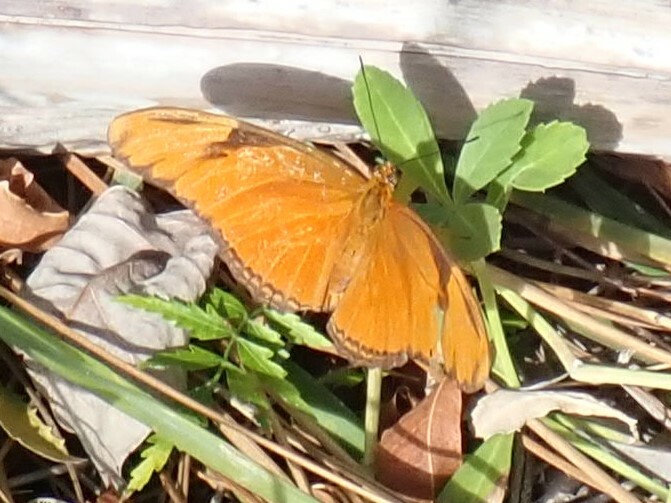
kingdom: Animalia
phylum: Arthropoda
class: Insecta
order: Lepidoptera
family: Nymphalidae
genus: Dryas
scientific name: Dryas iulia
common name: Flambeau
